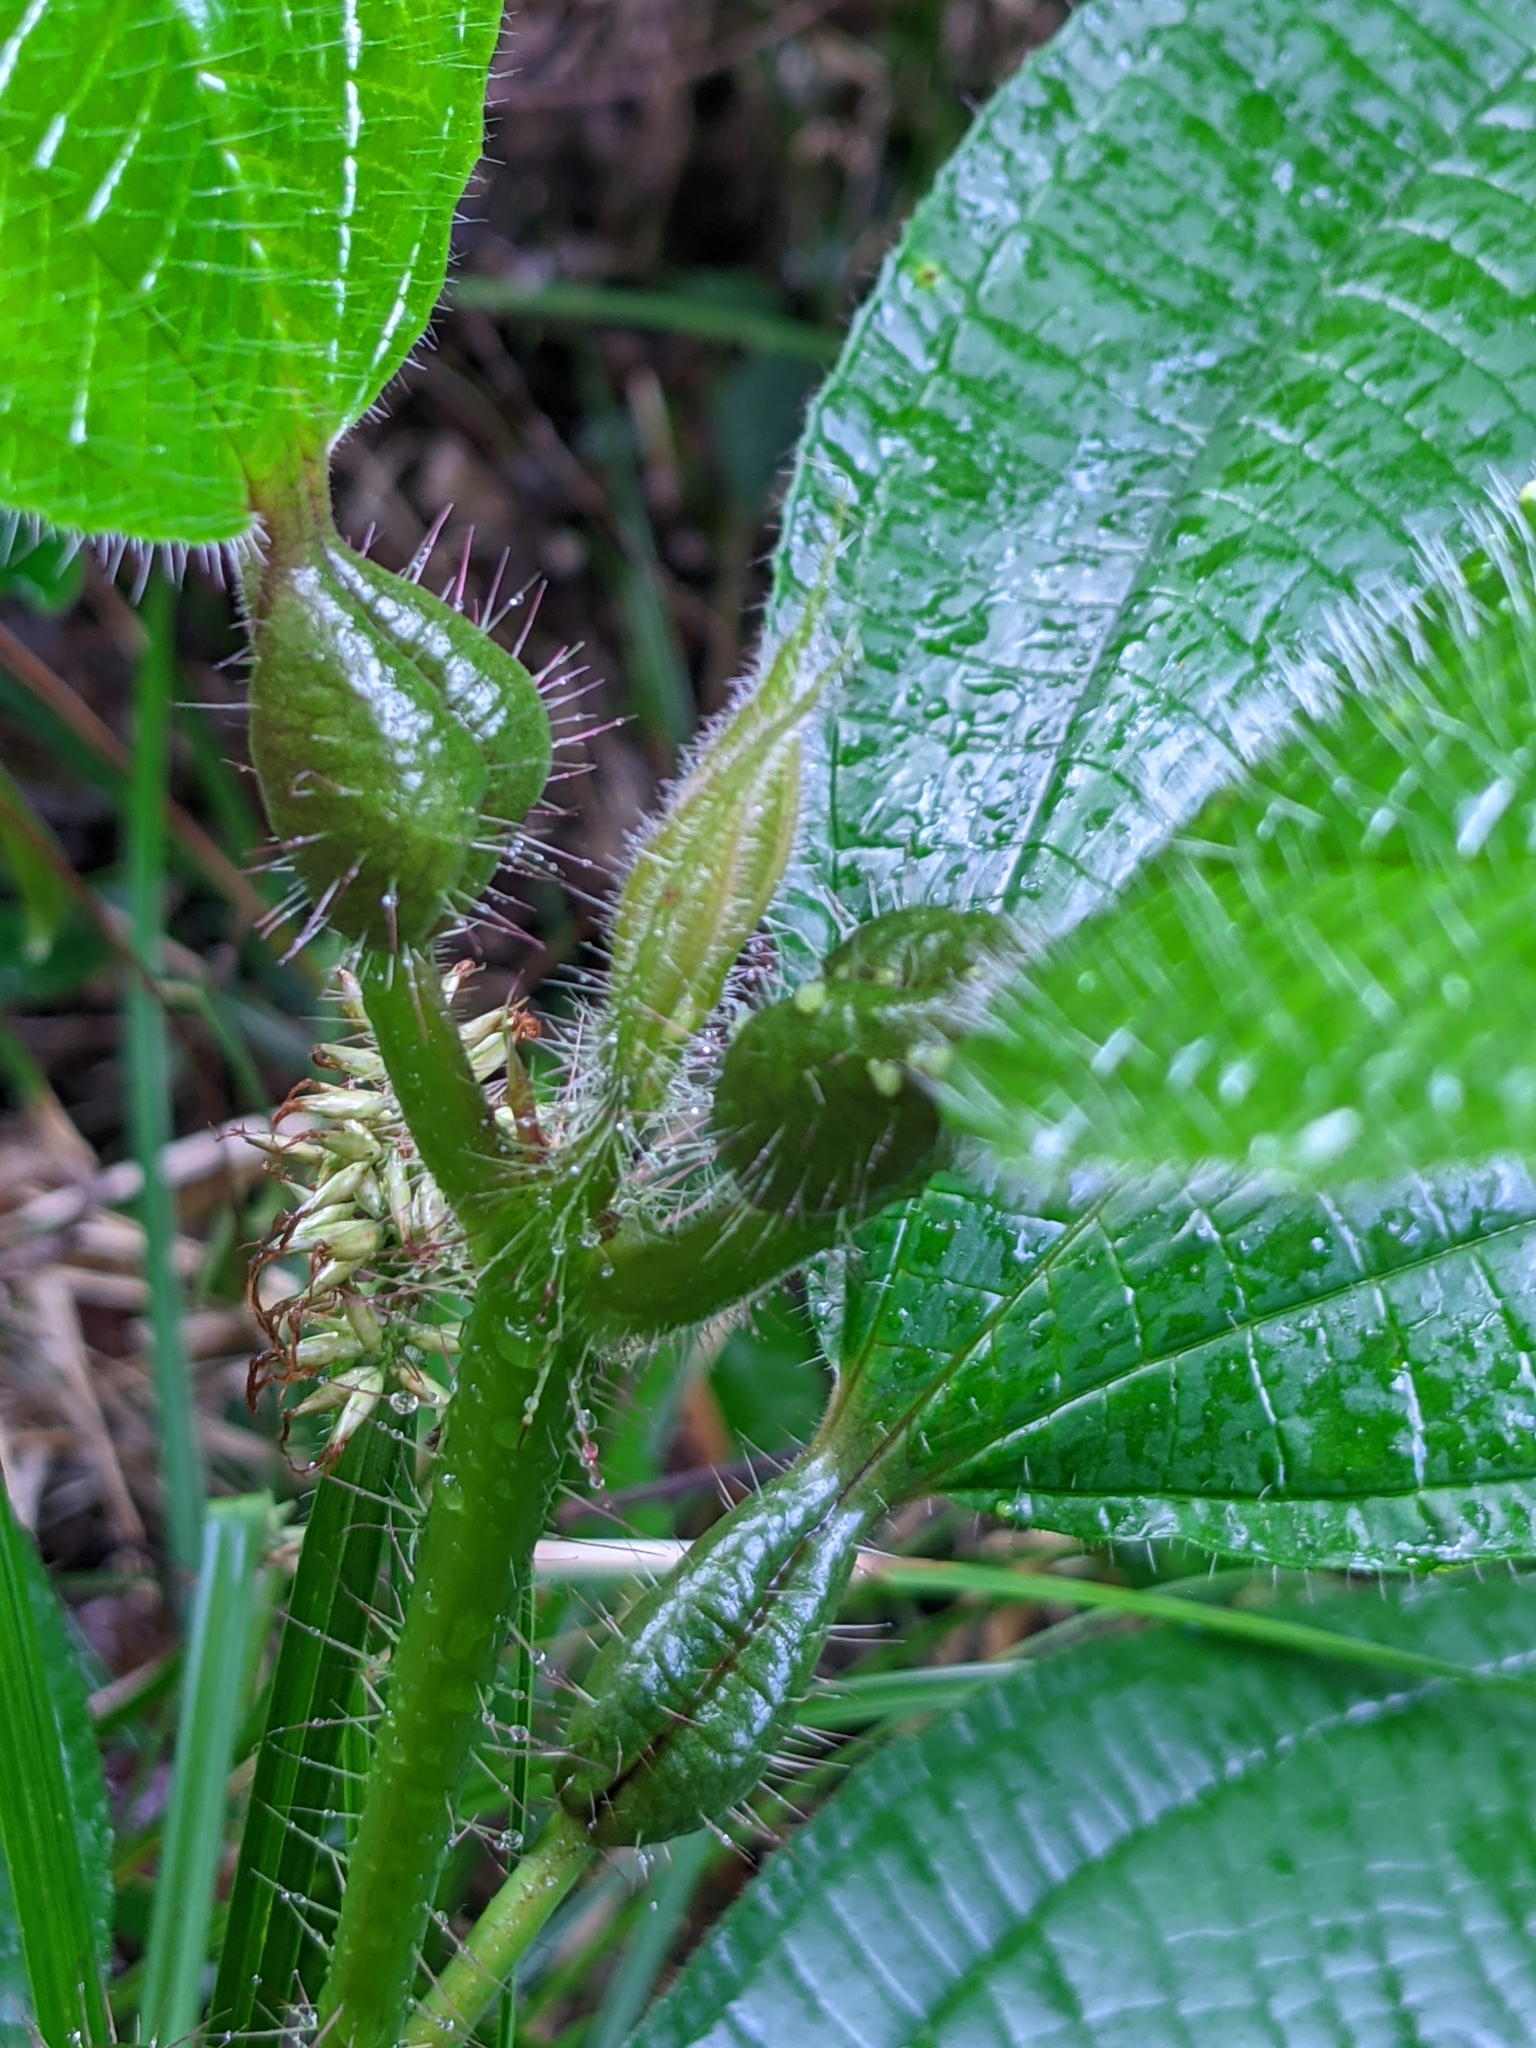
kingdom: Plantae
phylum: Tracheophyta
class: Magnoliopsida
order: Myrtales
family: Melastomataceae
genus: Miconia
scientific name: Miconia tococa
